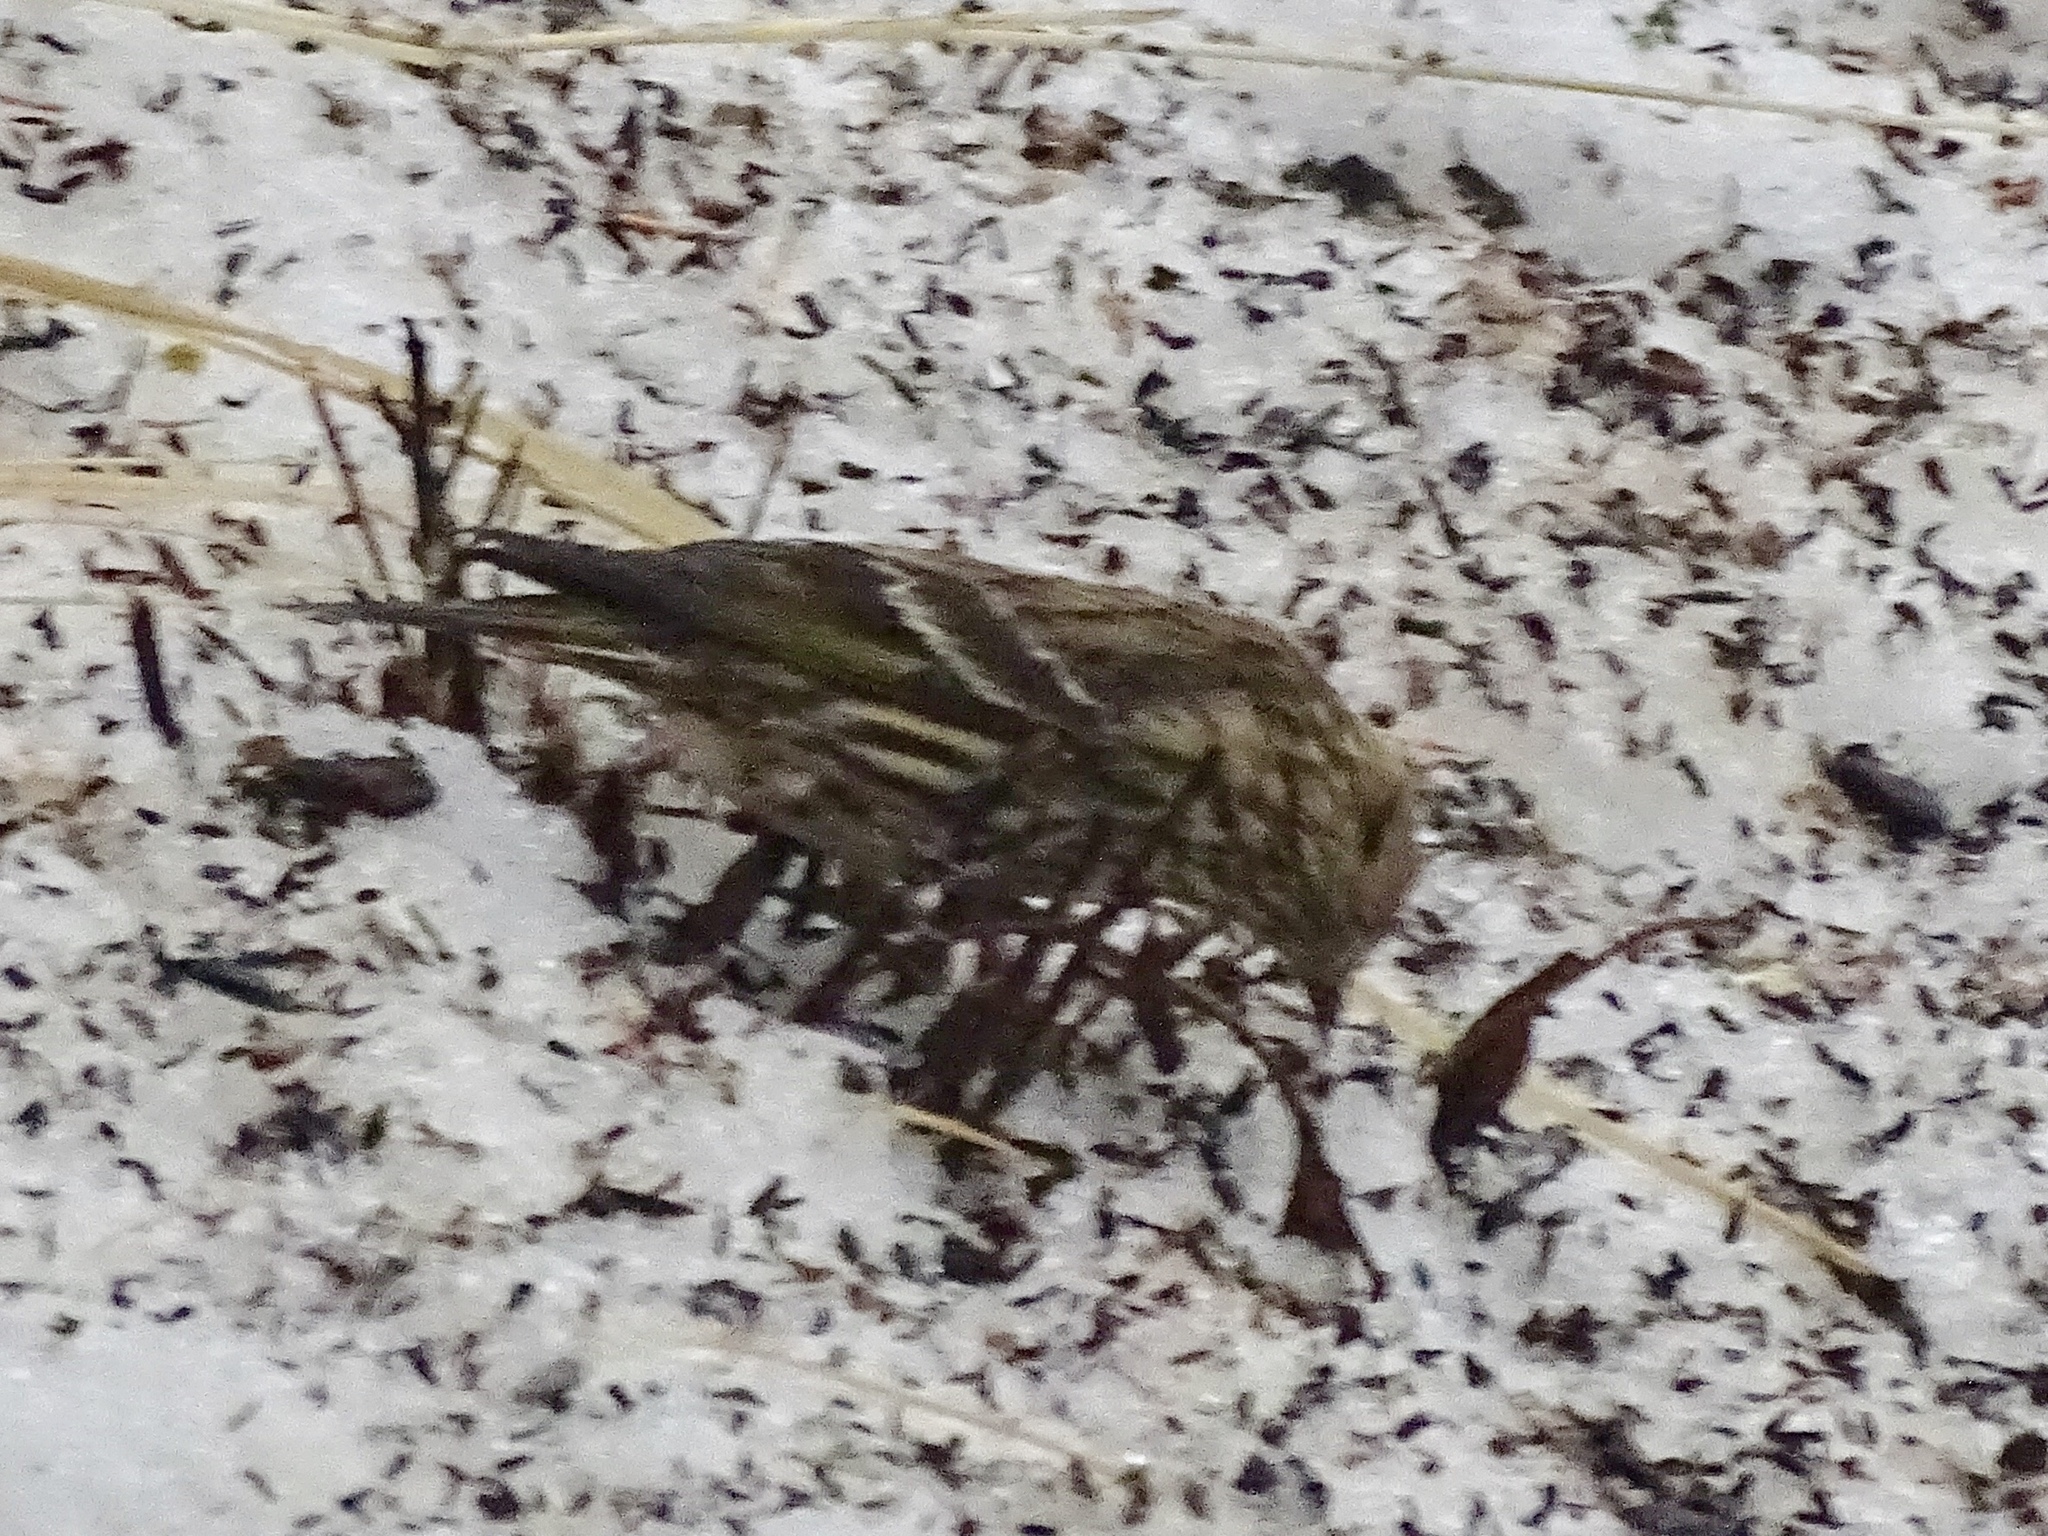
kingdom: Animalia
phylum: Chordata
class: Aves
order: Passeriformes
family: Fringillidae
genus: Spinus
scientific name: Spinus pinus
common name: Pine siskin
